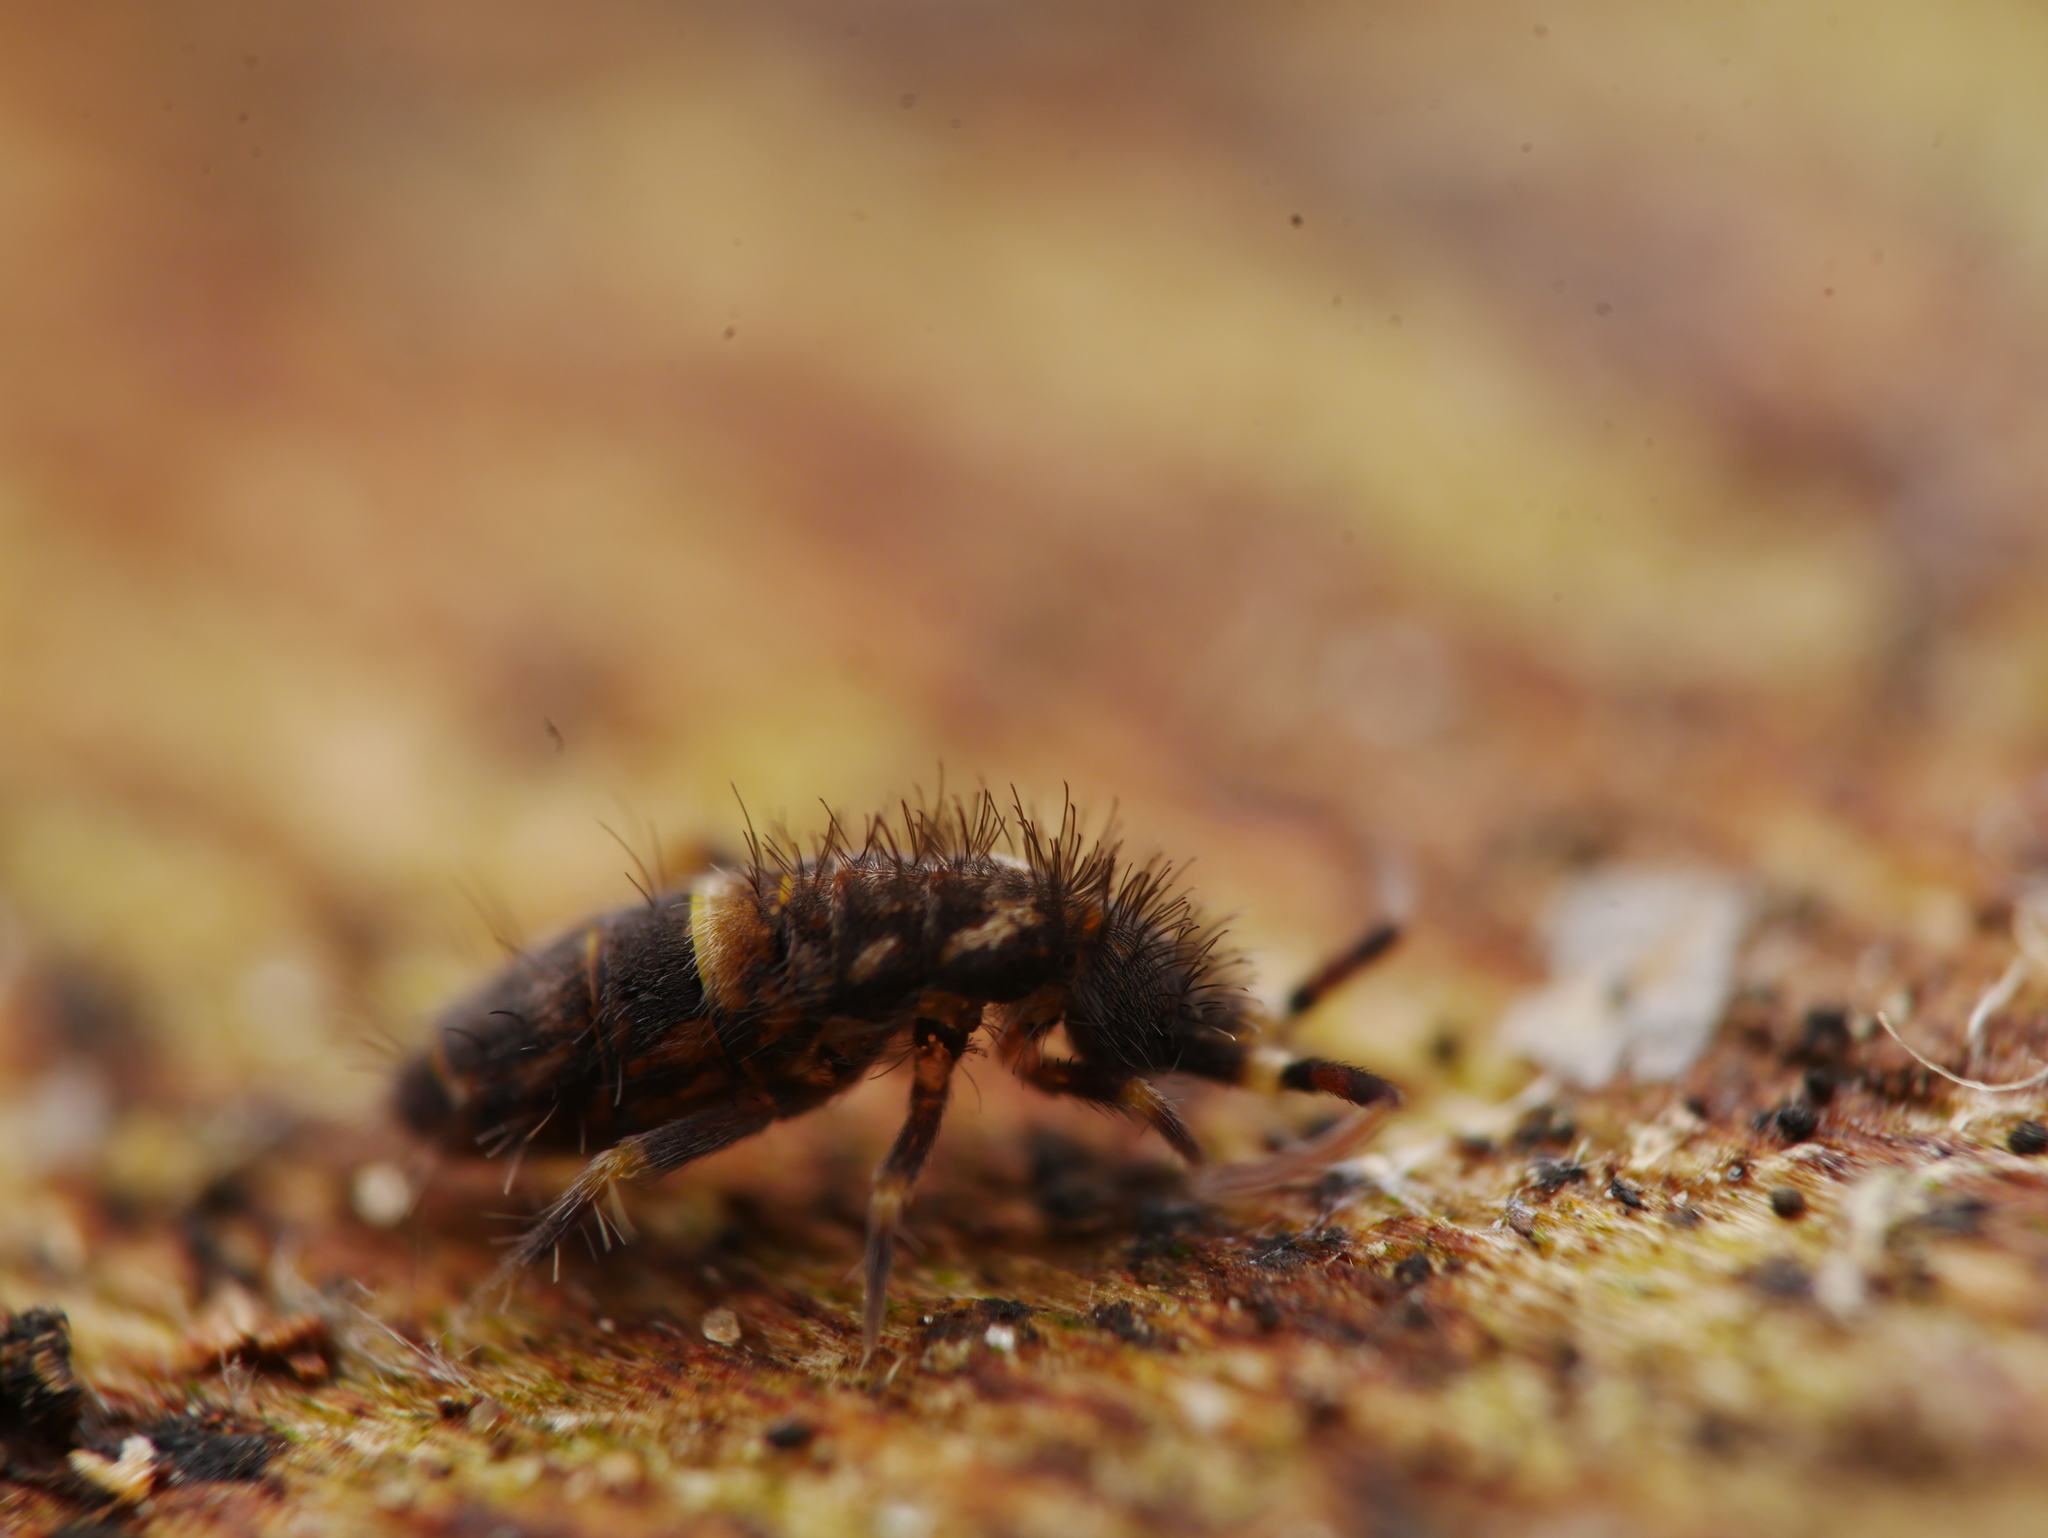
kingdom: Animalia
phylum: Arthropoda
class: Collembola
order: Entomobryomorpha
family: Orchesellidae
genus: Orchesella
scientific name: Orchesella cincta
